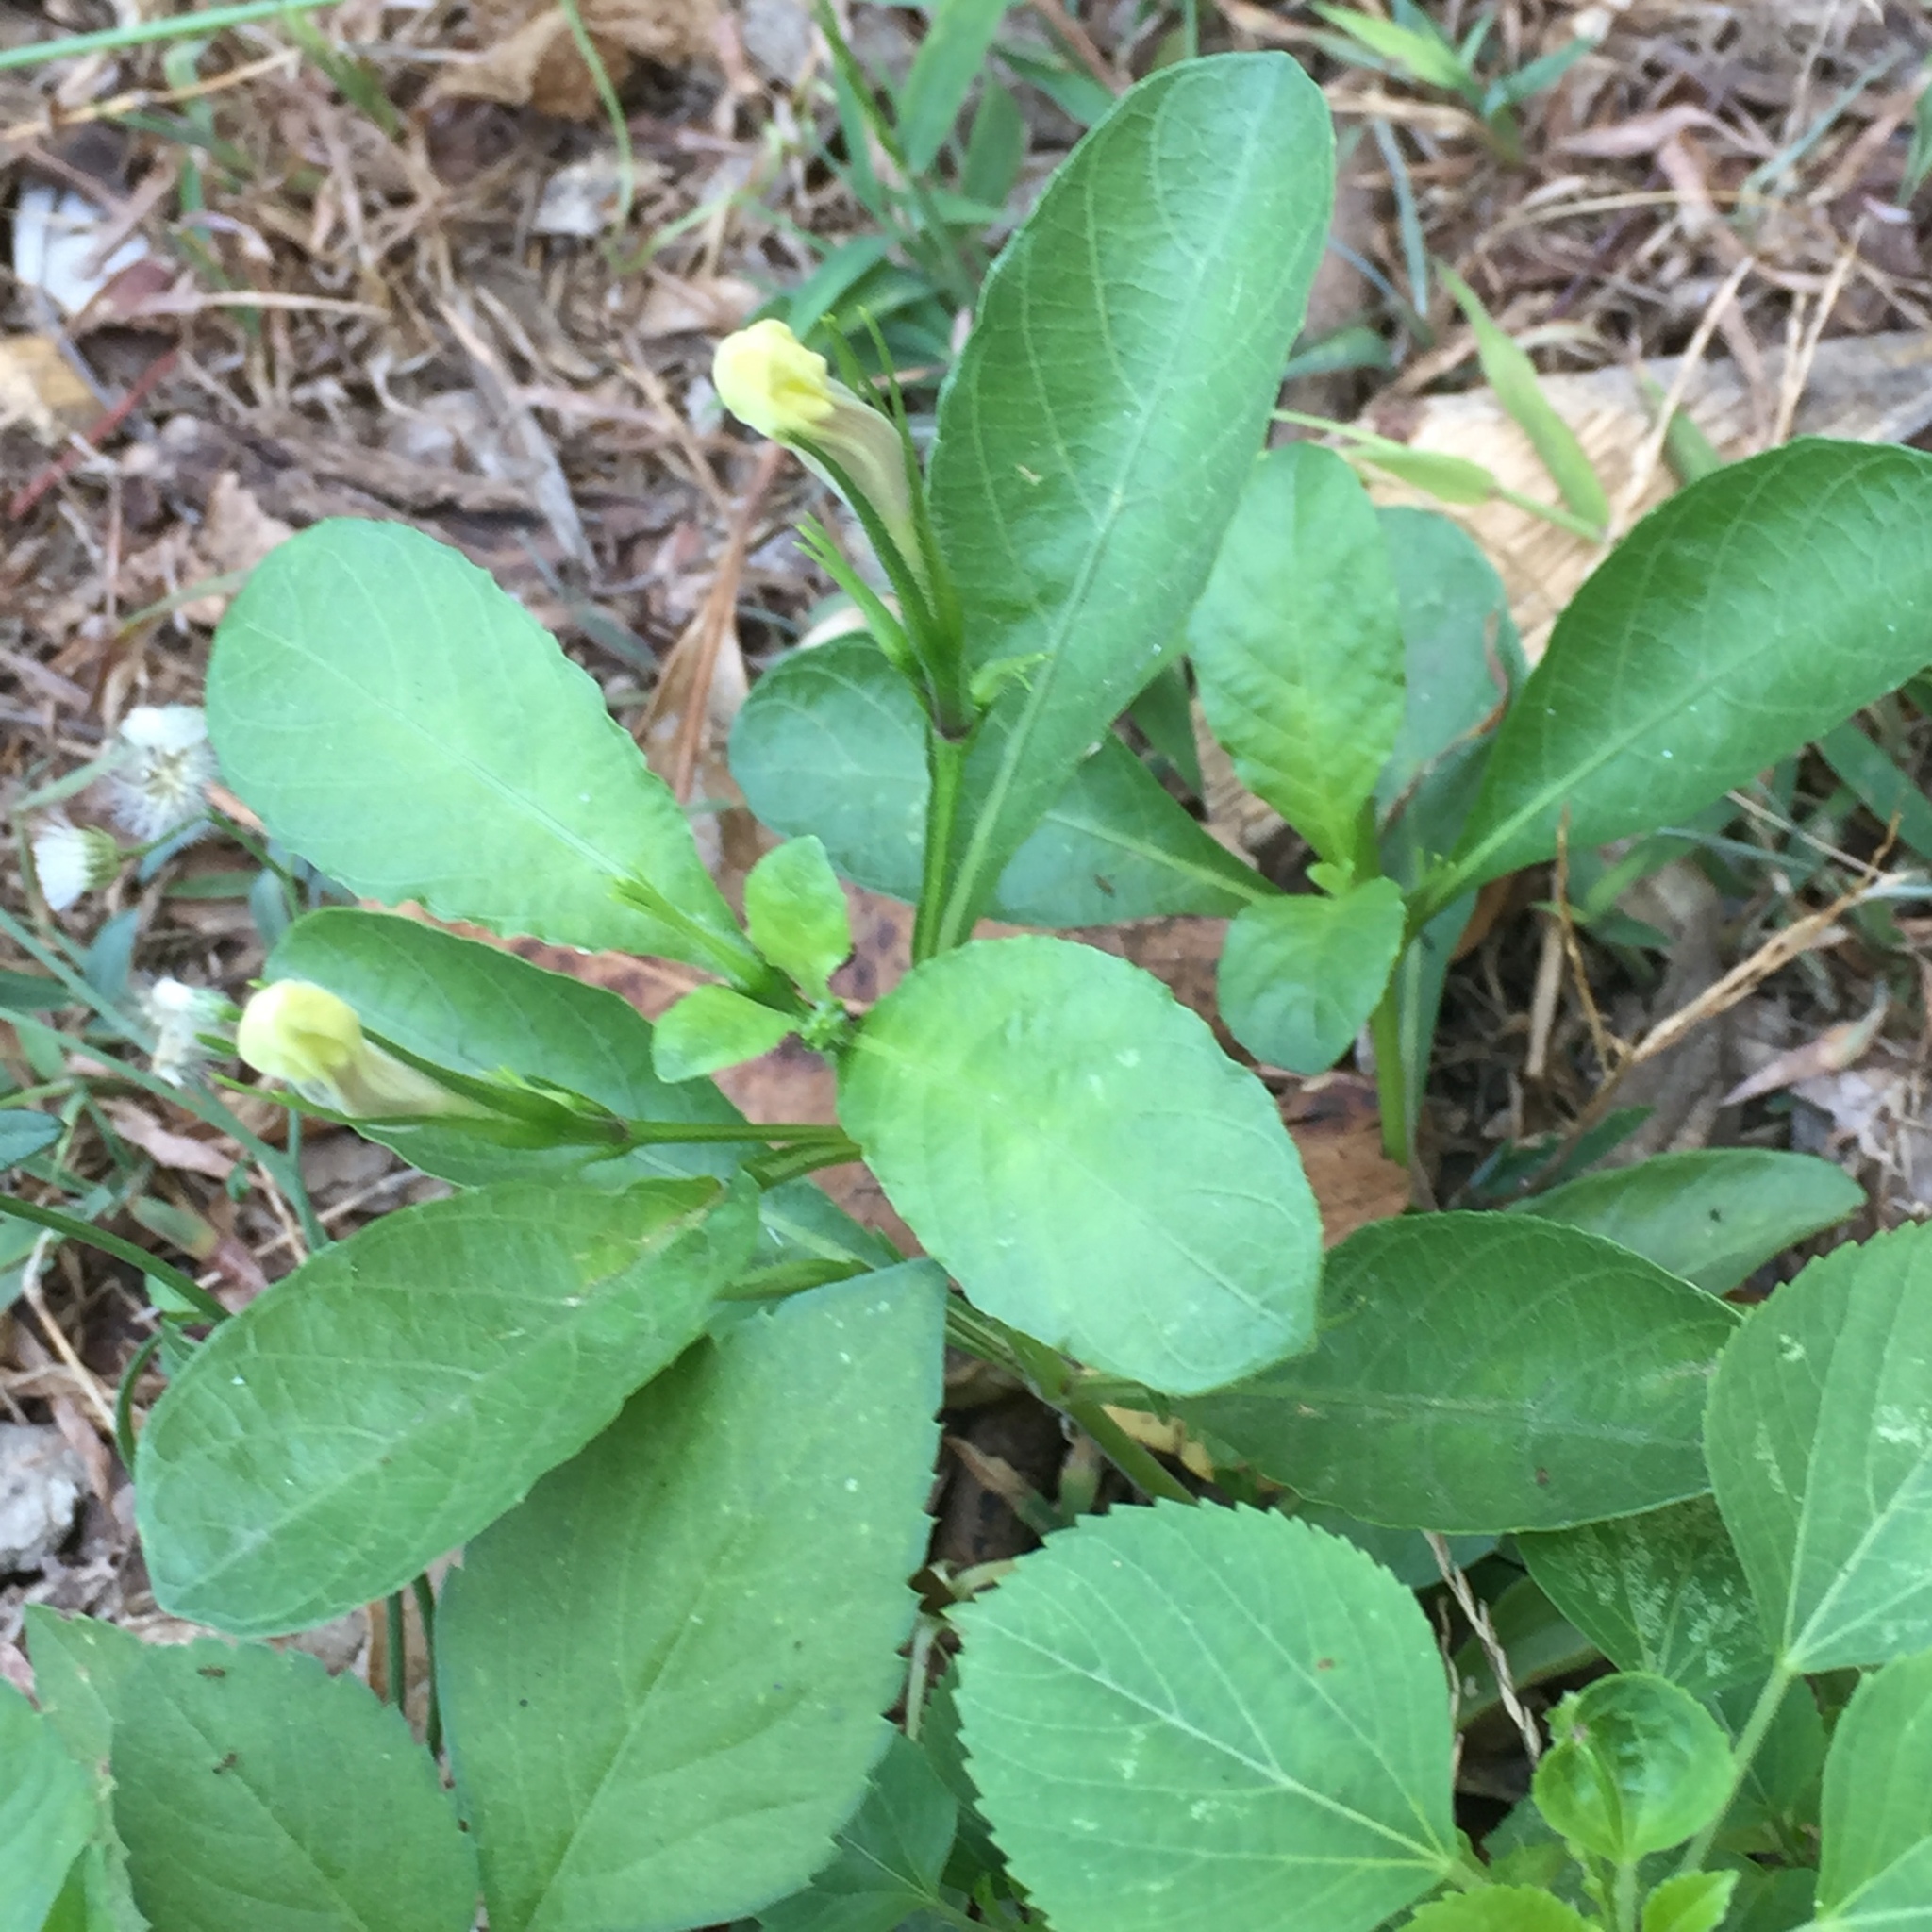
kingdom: Plantae
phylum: Tracheophyta
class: Magnoliopsida
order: Lamiales
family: Acanthaceae
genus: Ruellia
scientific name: Ruellia tuberosa
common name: Devil's bit
